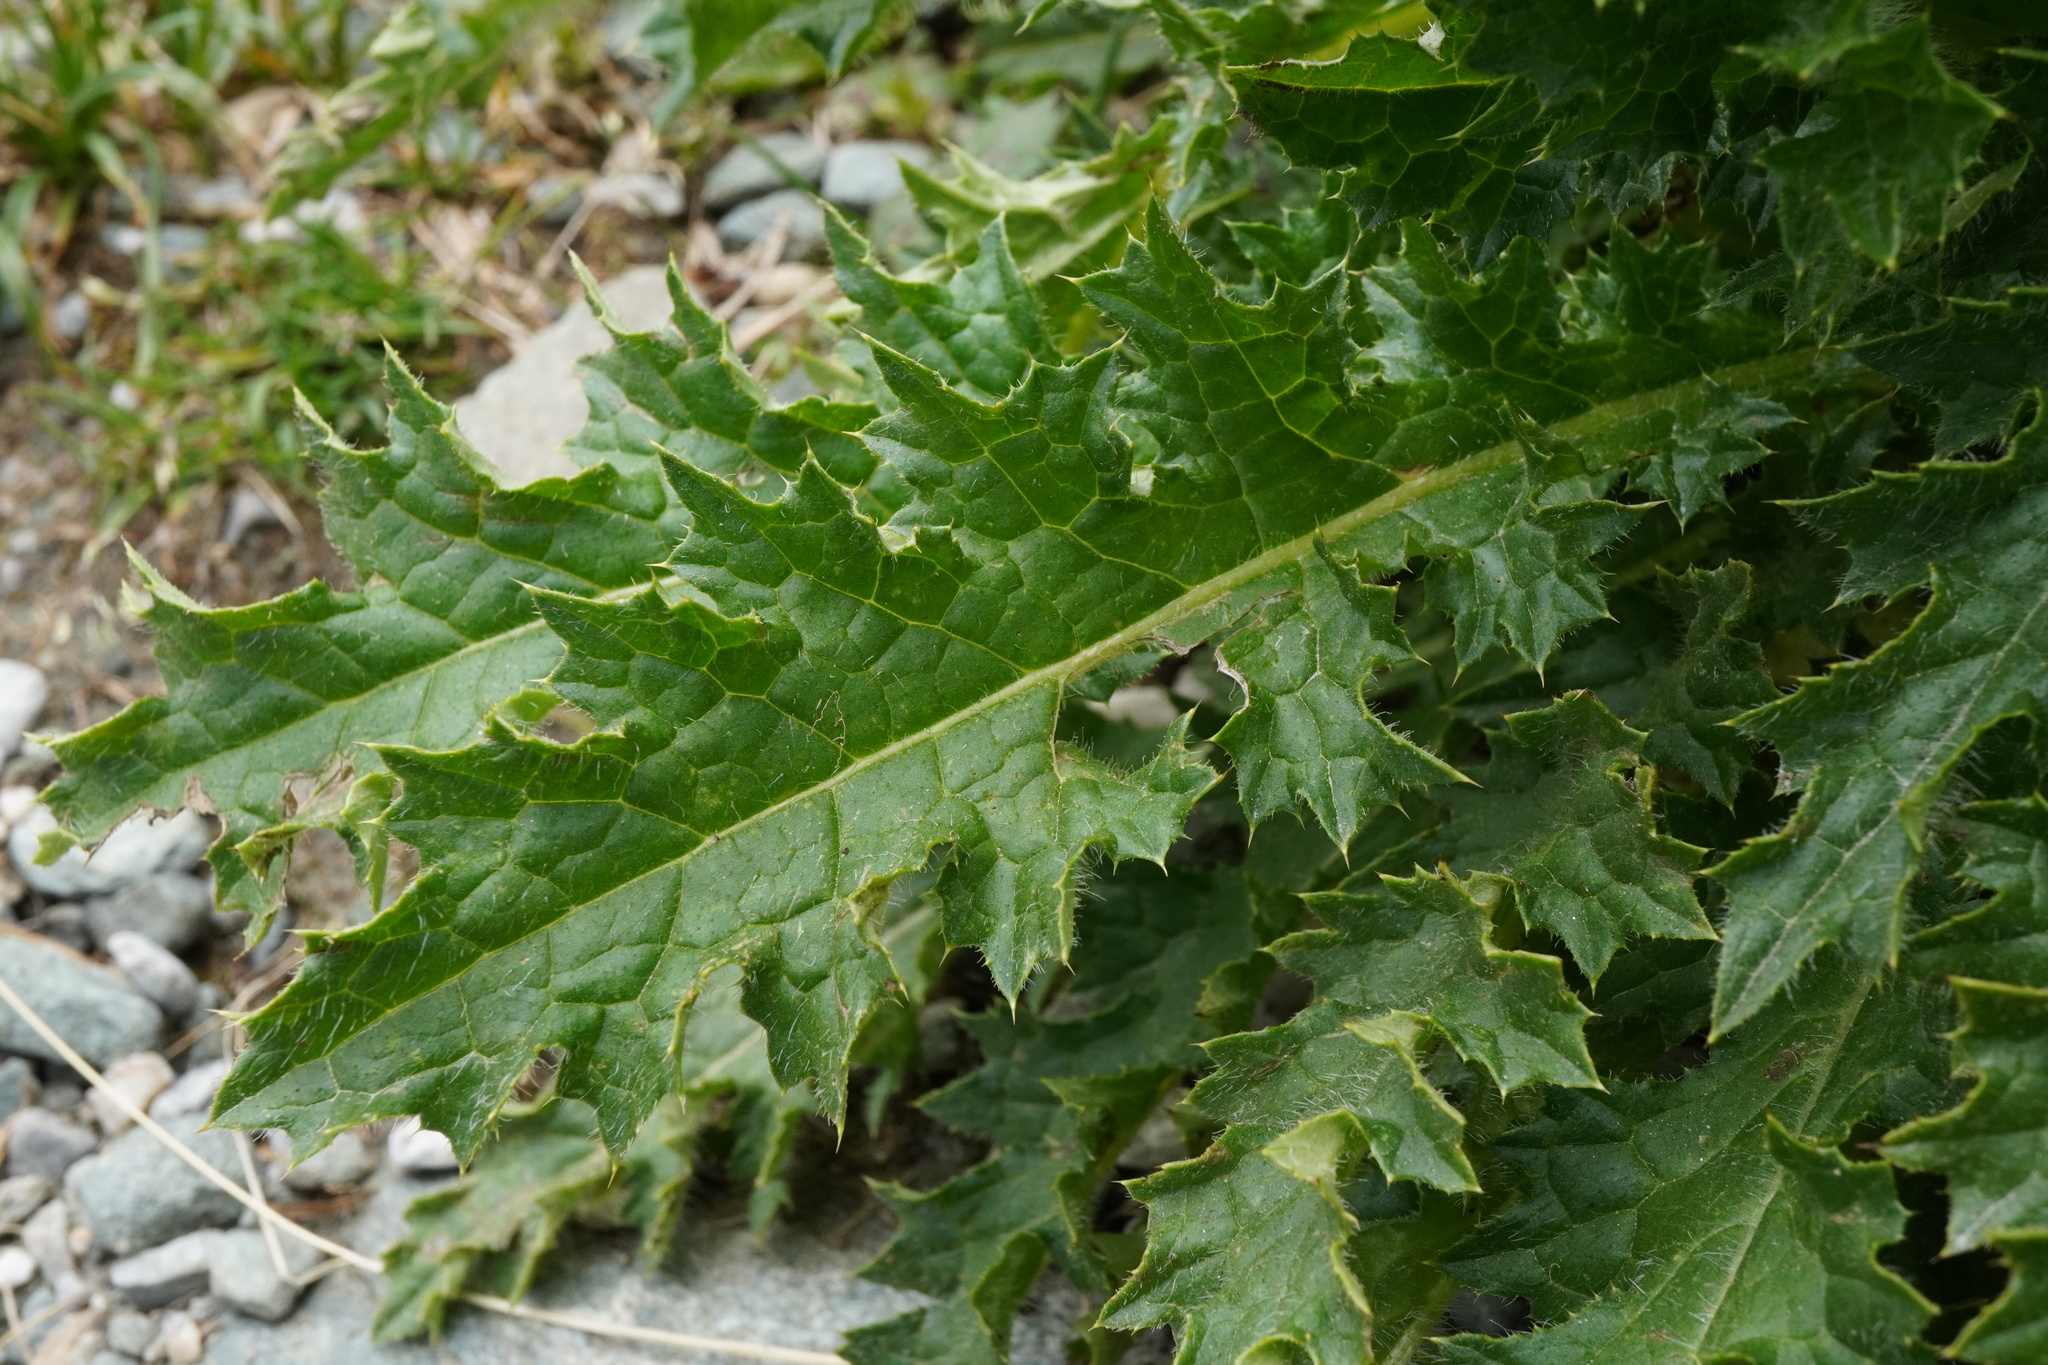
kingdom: Plantae
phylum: Tracheophyta
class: Magnoliopsida
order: Asterales
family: Asteraceae
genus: Cirsium
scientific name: Cirsium spinosissimum
